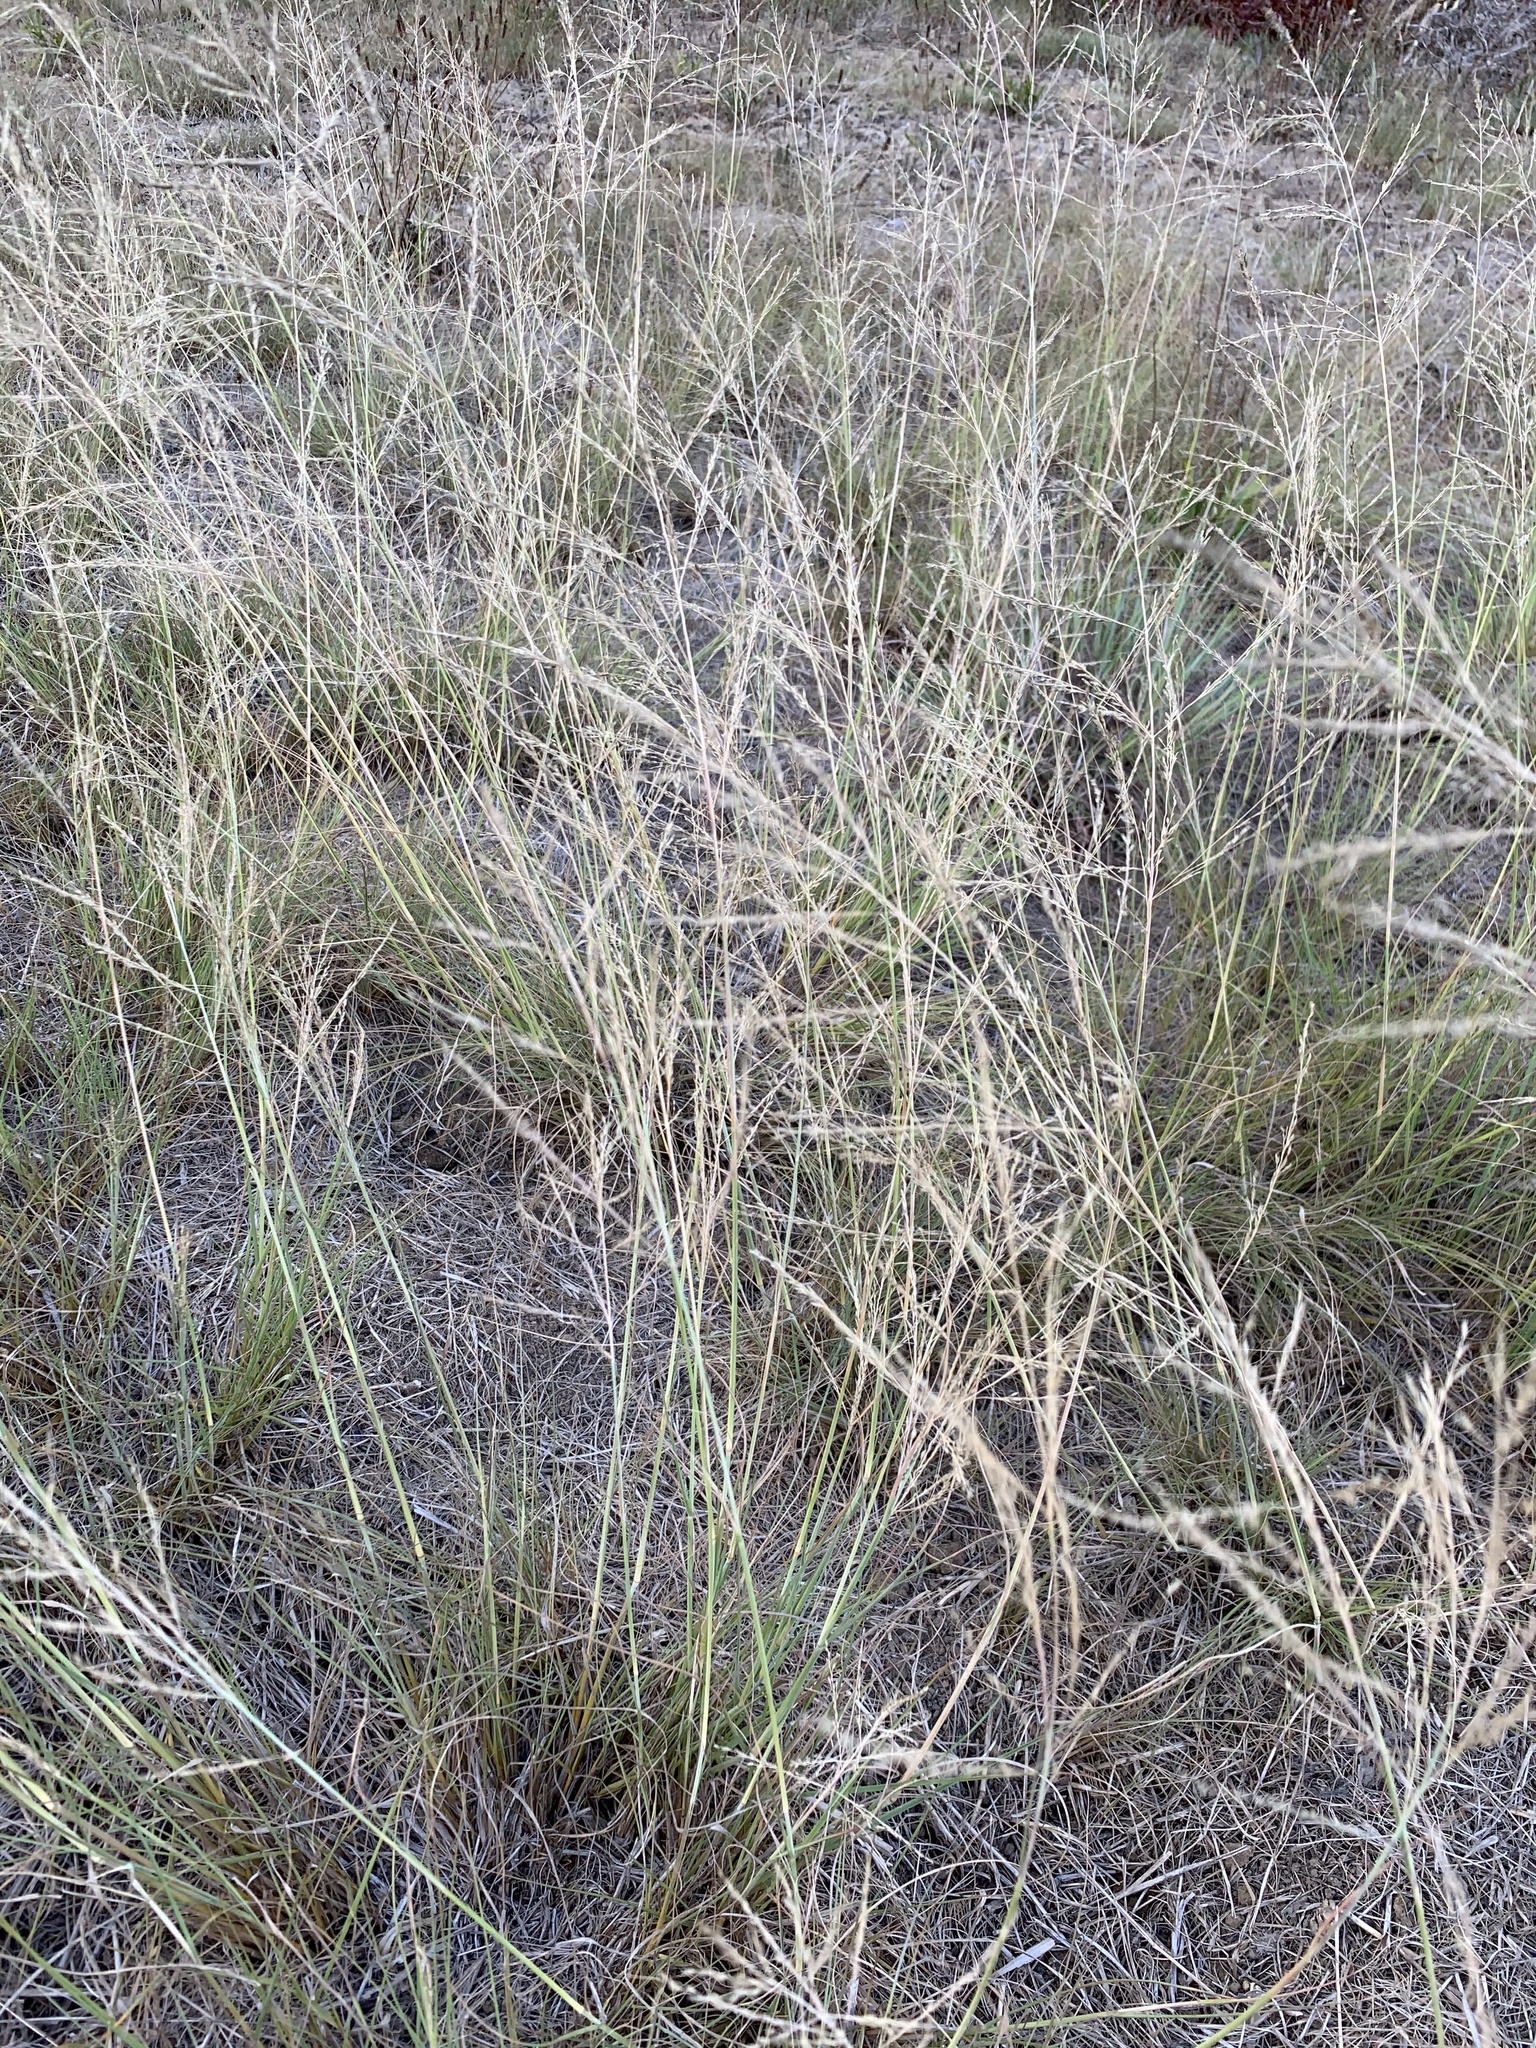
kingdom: Plantae
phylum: Tracheophyta
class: Liliopsida
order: Poales
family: Poaceae
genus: Eragrostis
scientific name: Eragrostis curvula
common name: African love-grass
